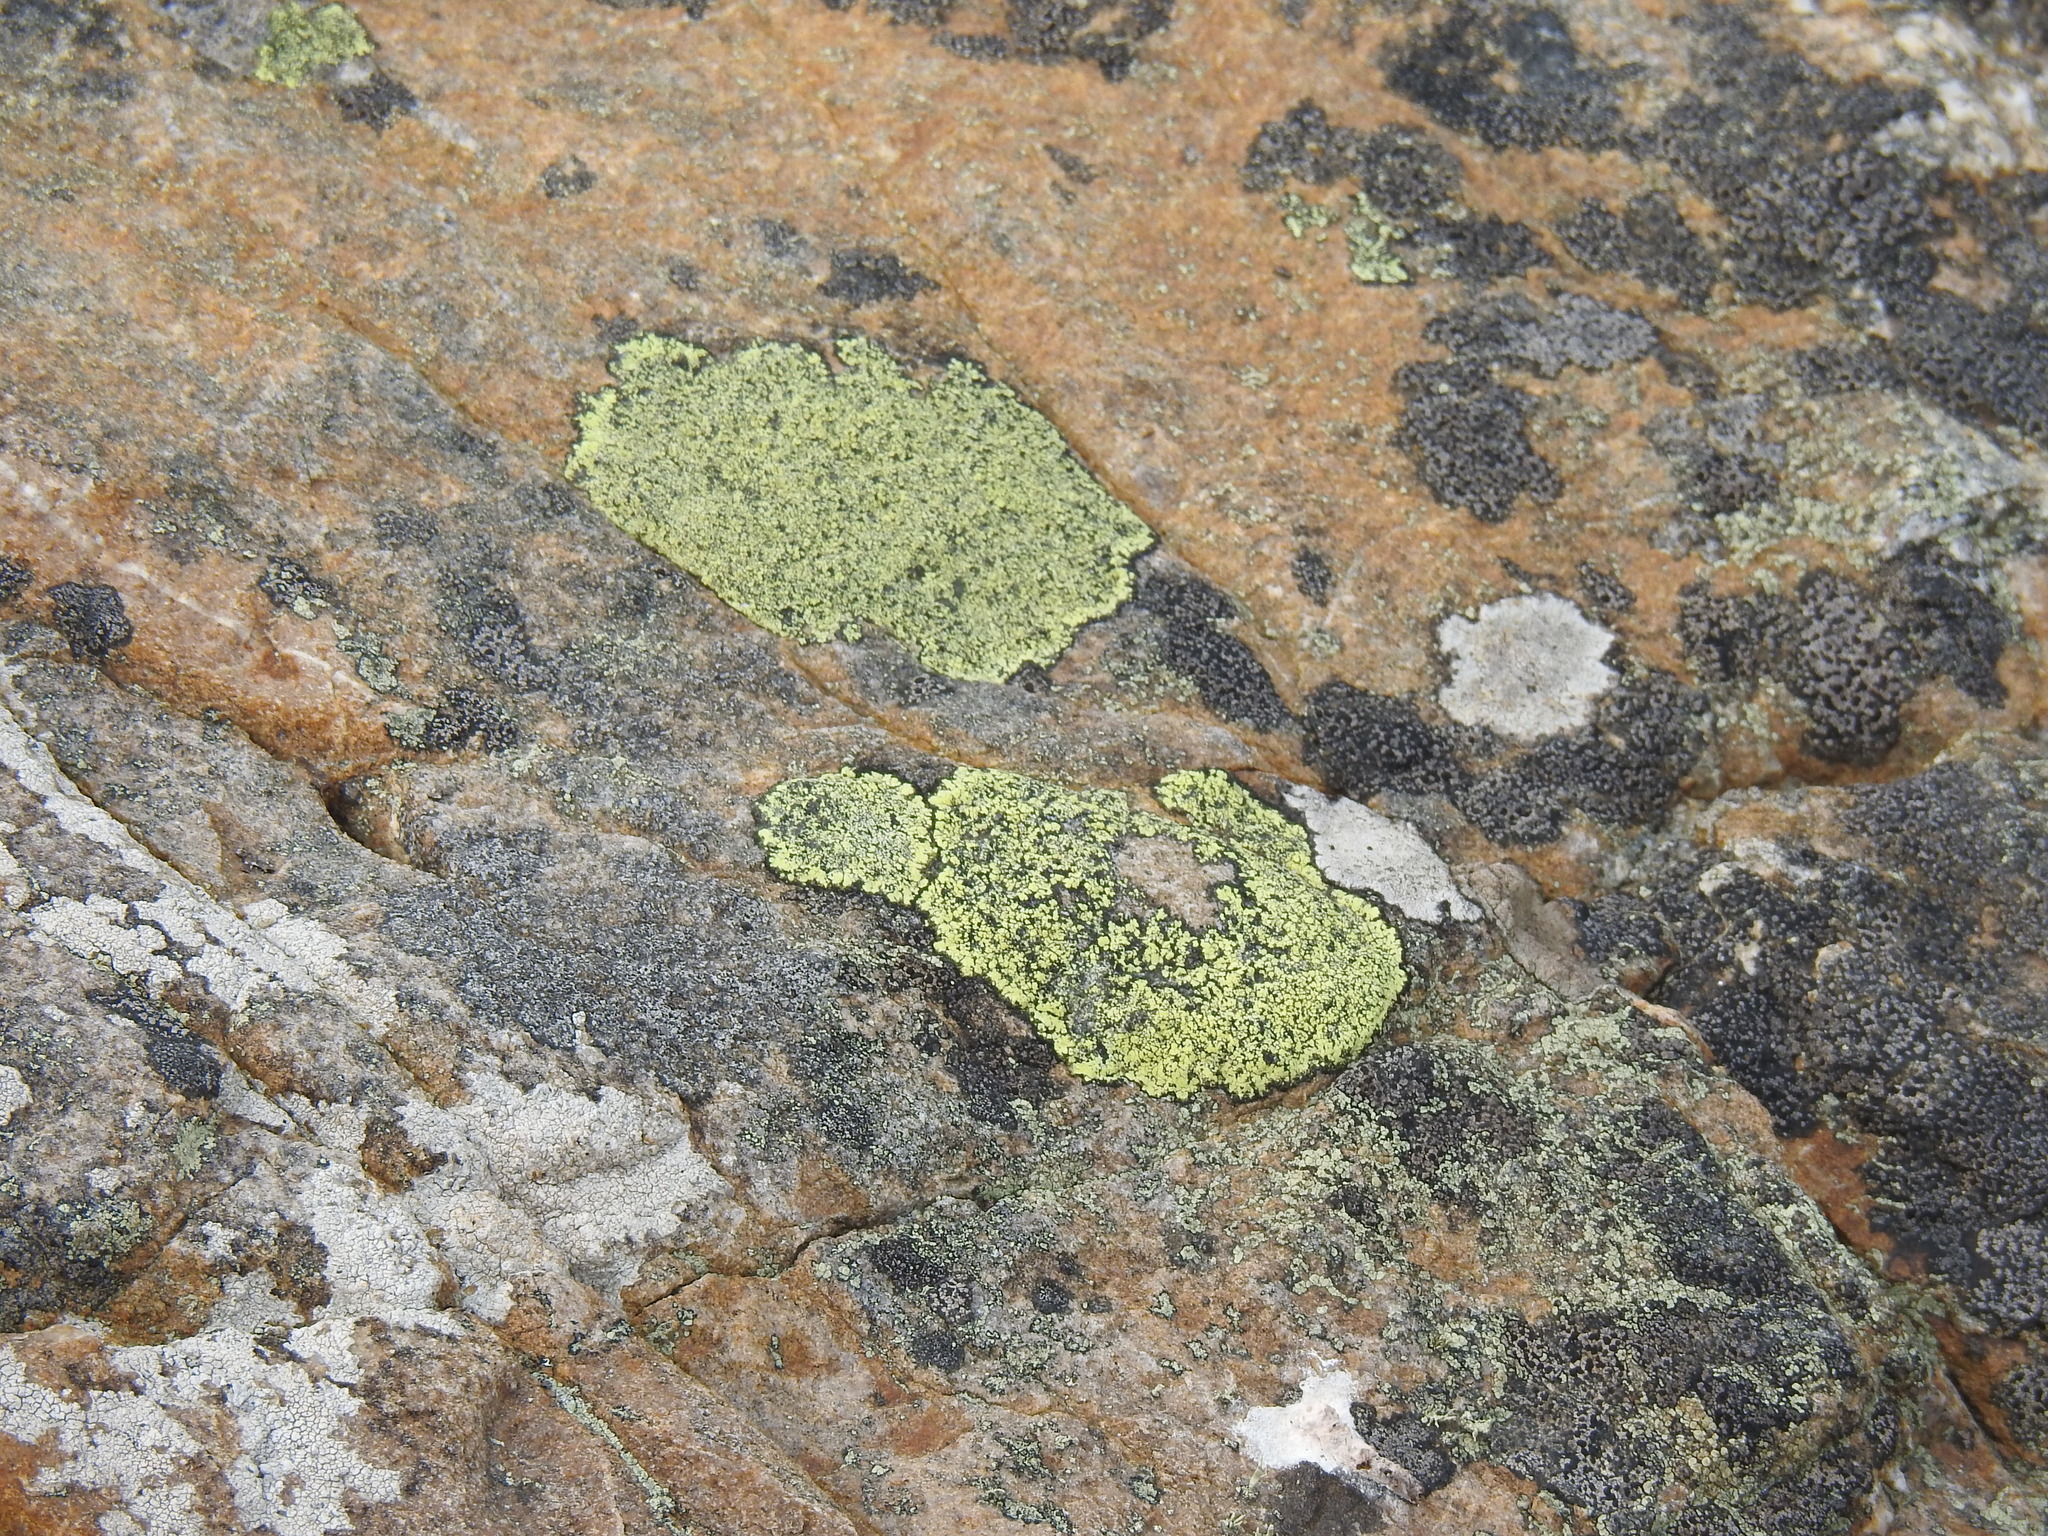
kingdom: Fungi
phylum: Ascomycota
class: Lecanoromycetes
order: Rhizocarpales
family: Rhizocarpaceae
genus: Rhizocarpon
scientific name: Rhizocarpon geographicum
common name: Yellow map lichen
